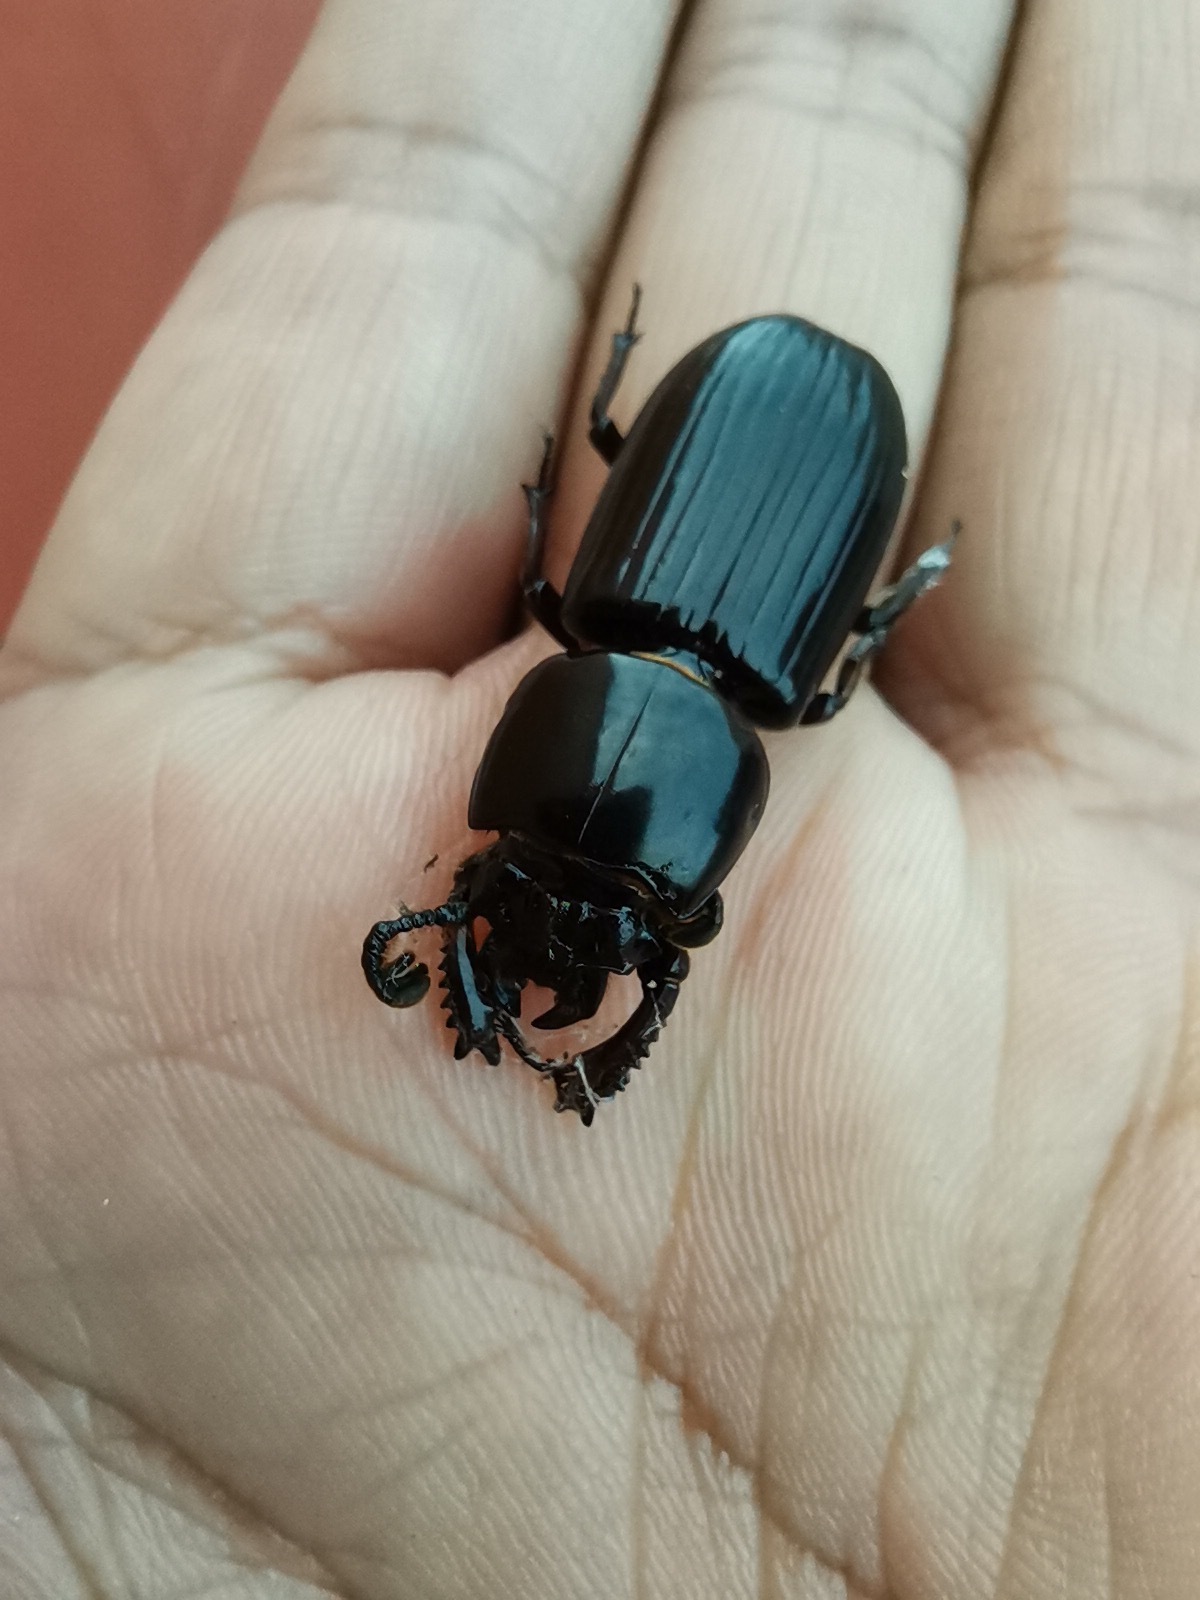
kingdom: Animalia
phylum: Arthropoda
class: Insecta
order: Coleoptera
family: Passalidae
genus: Ptichopus
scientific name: Ptichopus angulatus
